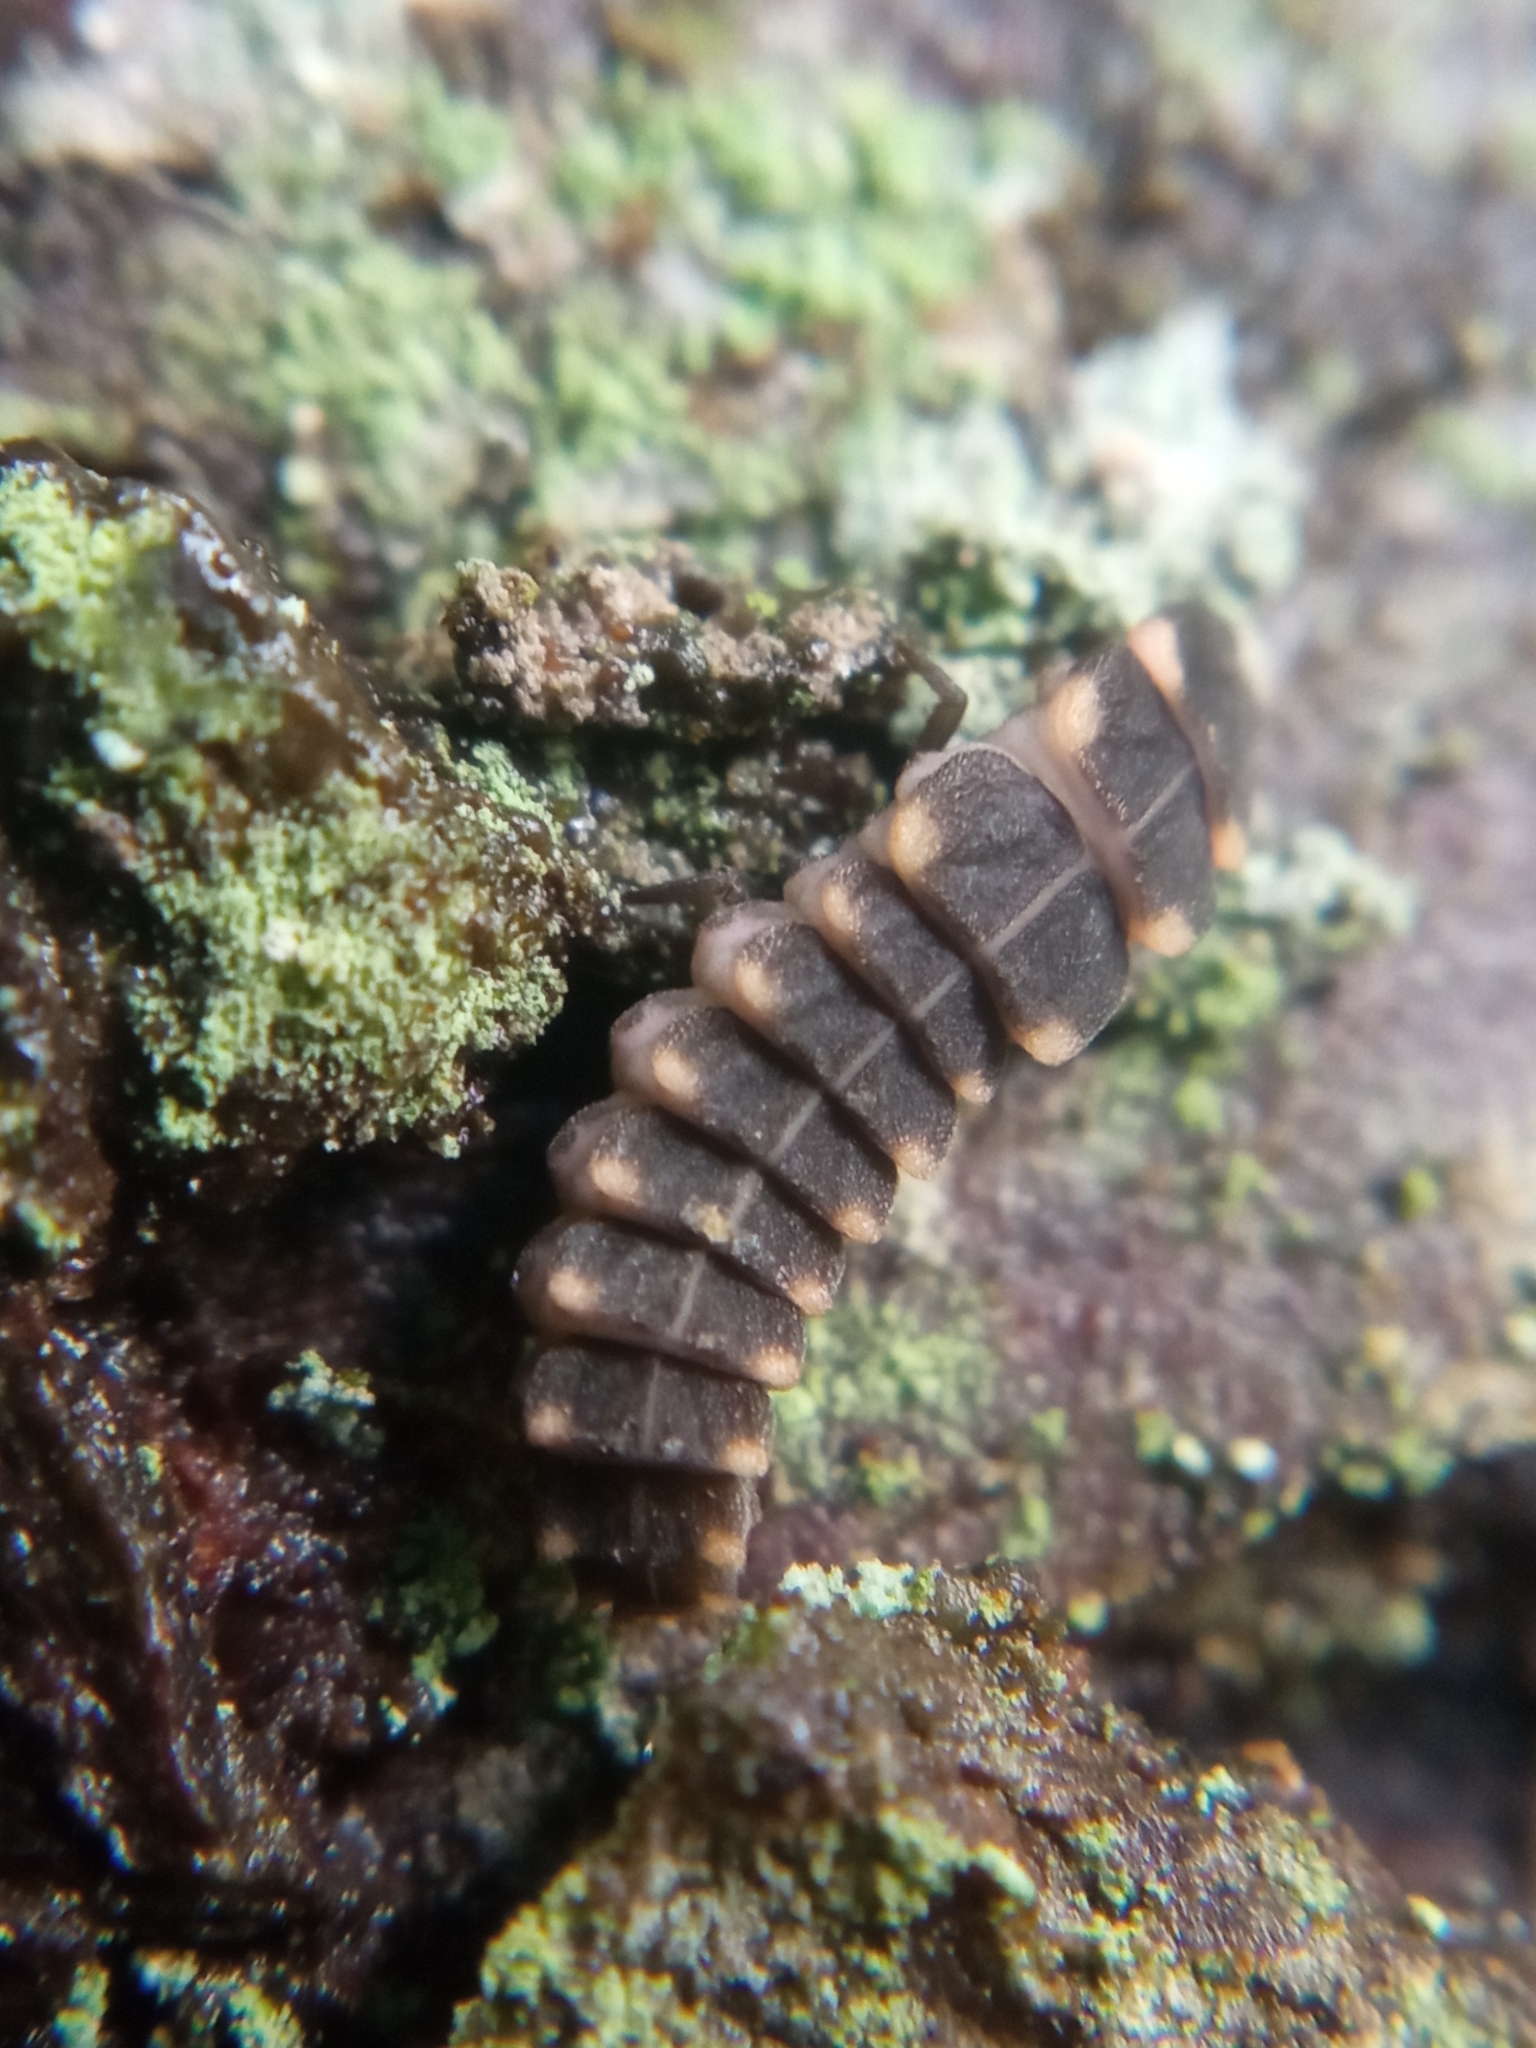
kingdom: Animalia
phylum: Arthropoda
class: Insecta
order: Coleoptera
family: Lampyridae
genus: Lampyris
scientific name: Lampyris noctiluca
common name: Glow-worm
